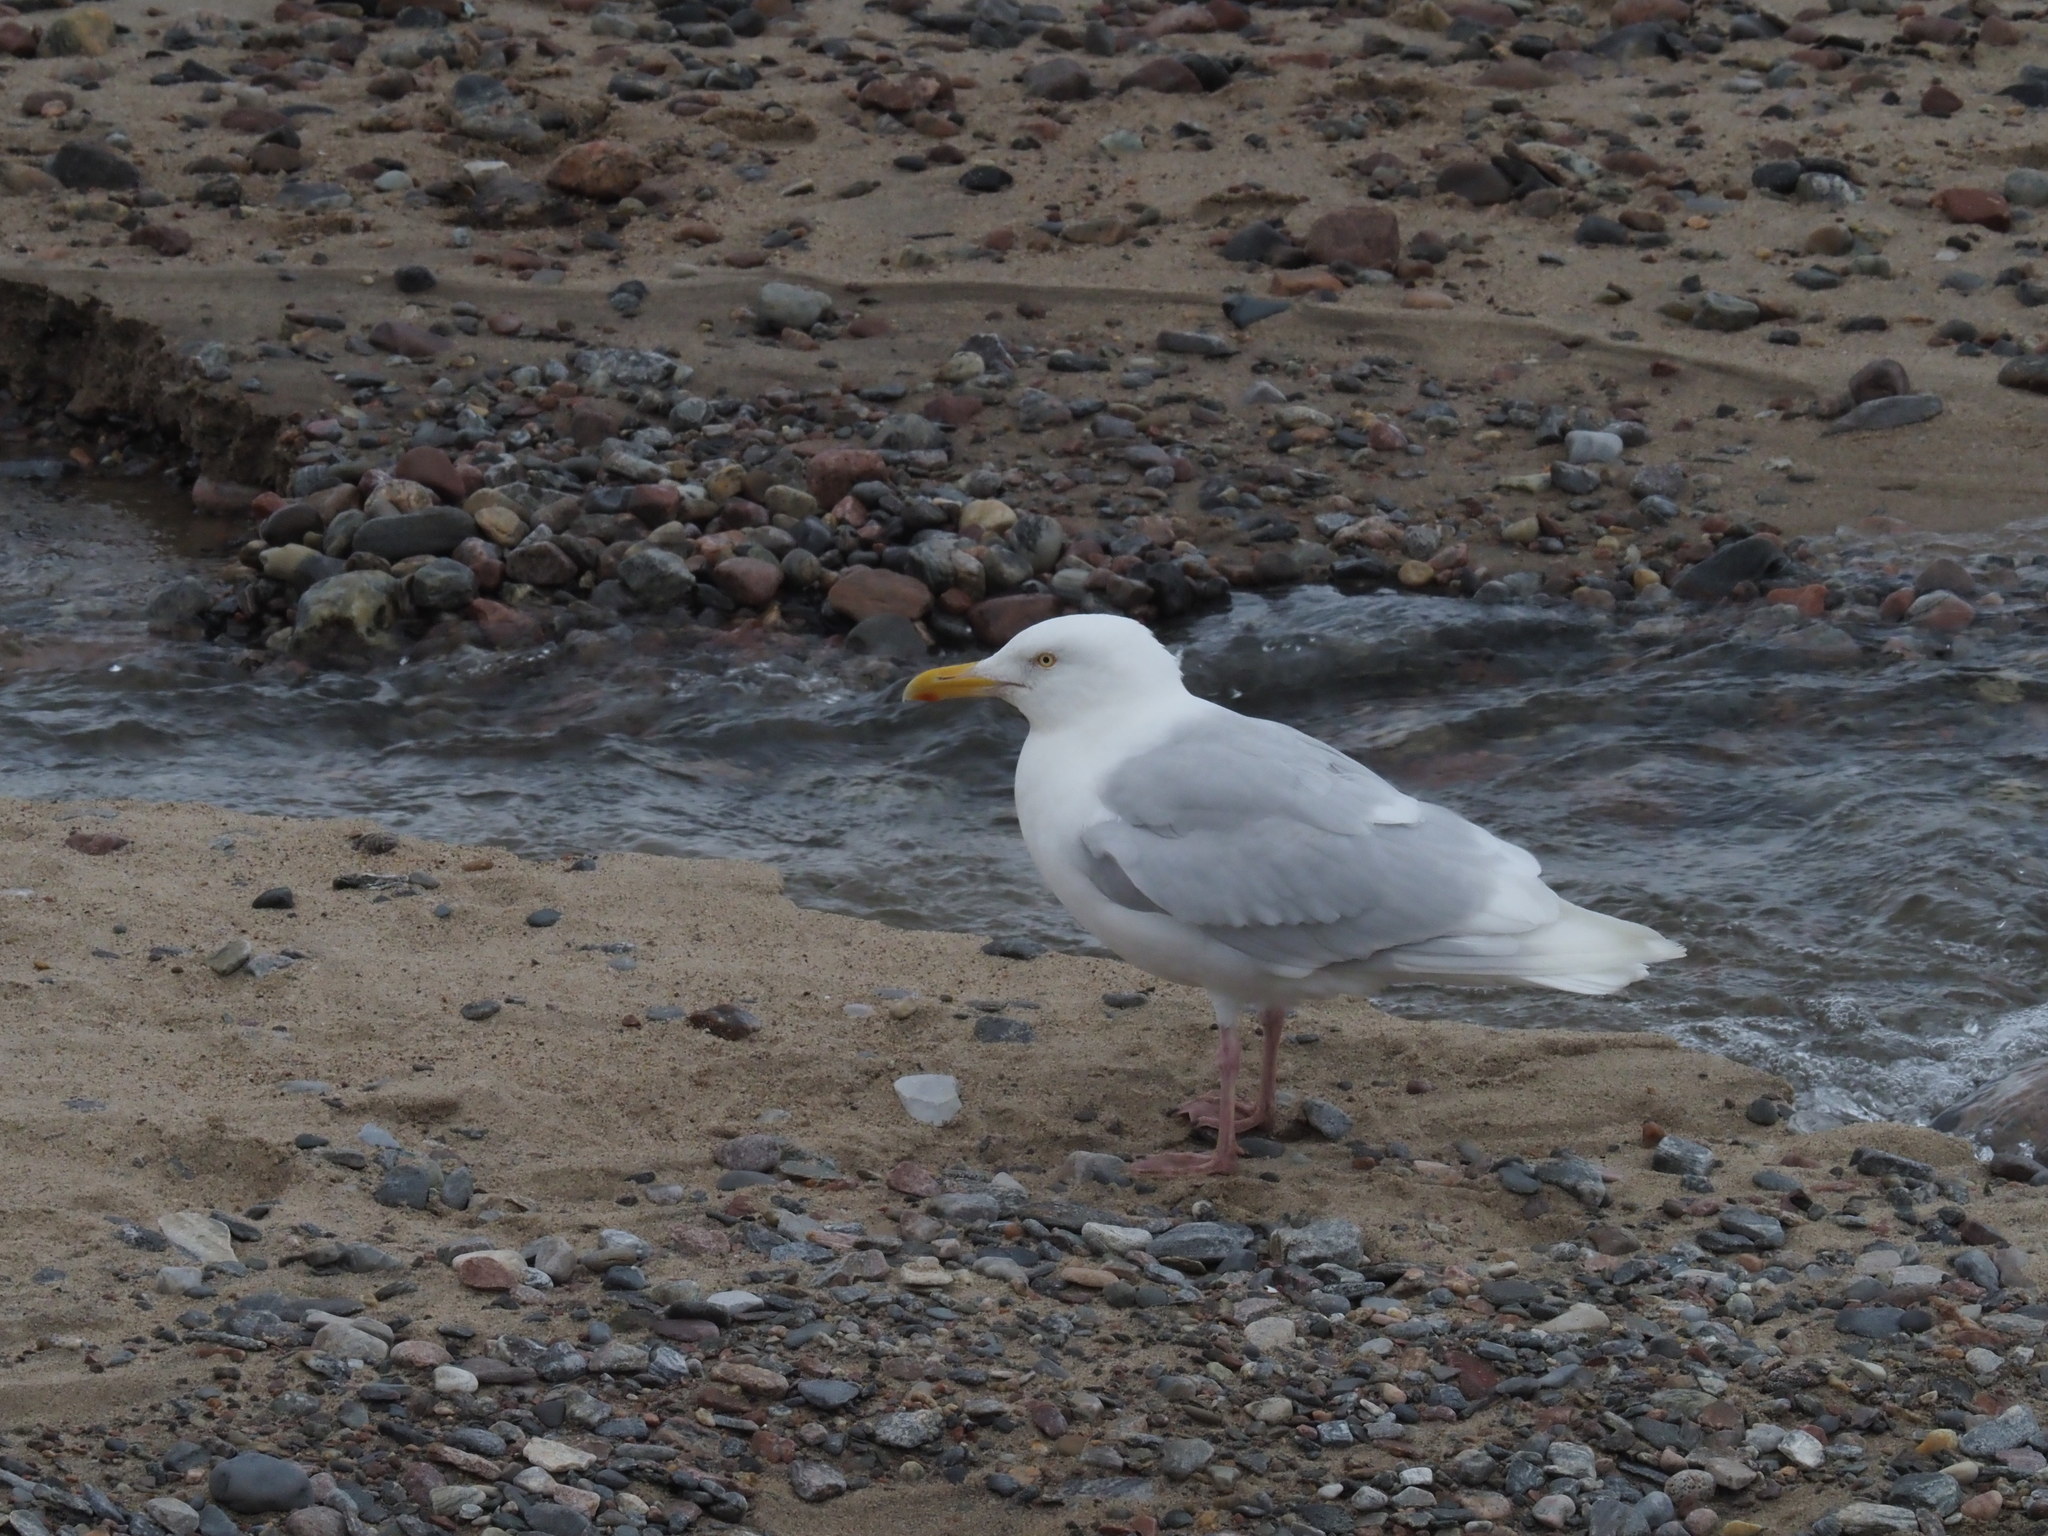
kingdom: Animalia
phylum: Chordata
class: Aves
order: Charadriiformes
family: Laridae
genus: Larus
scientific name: Larus hyperboreus
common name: Glaucous gull
